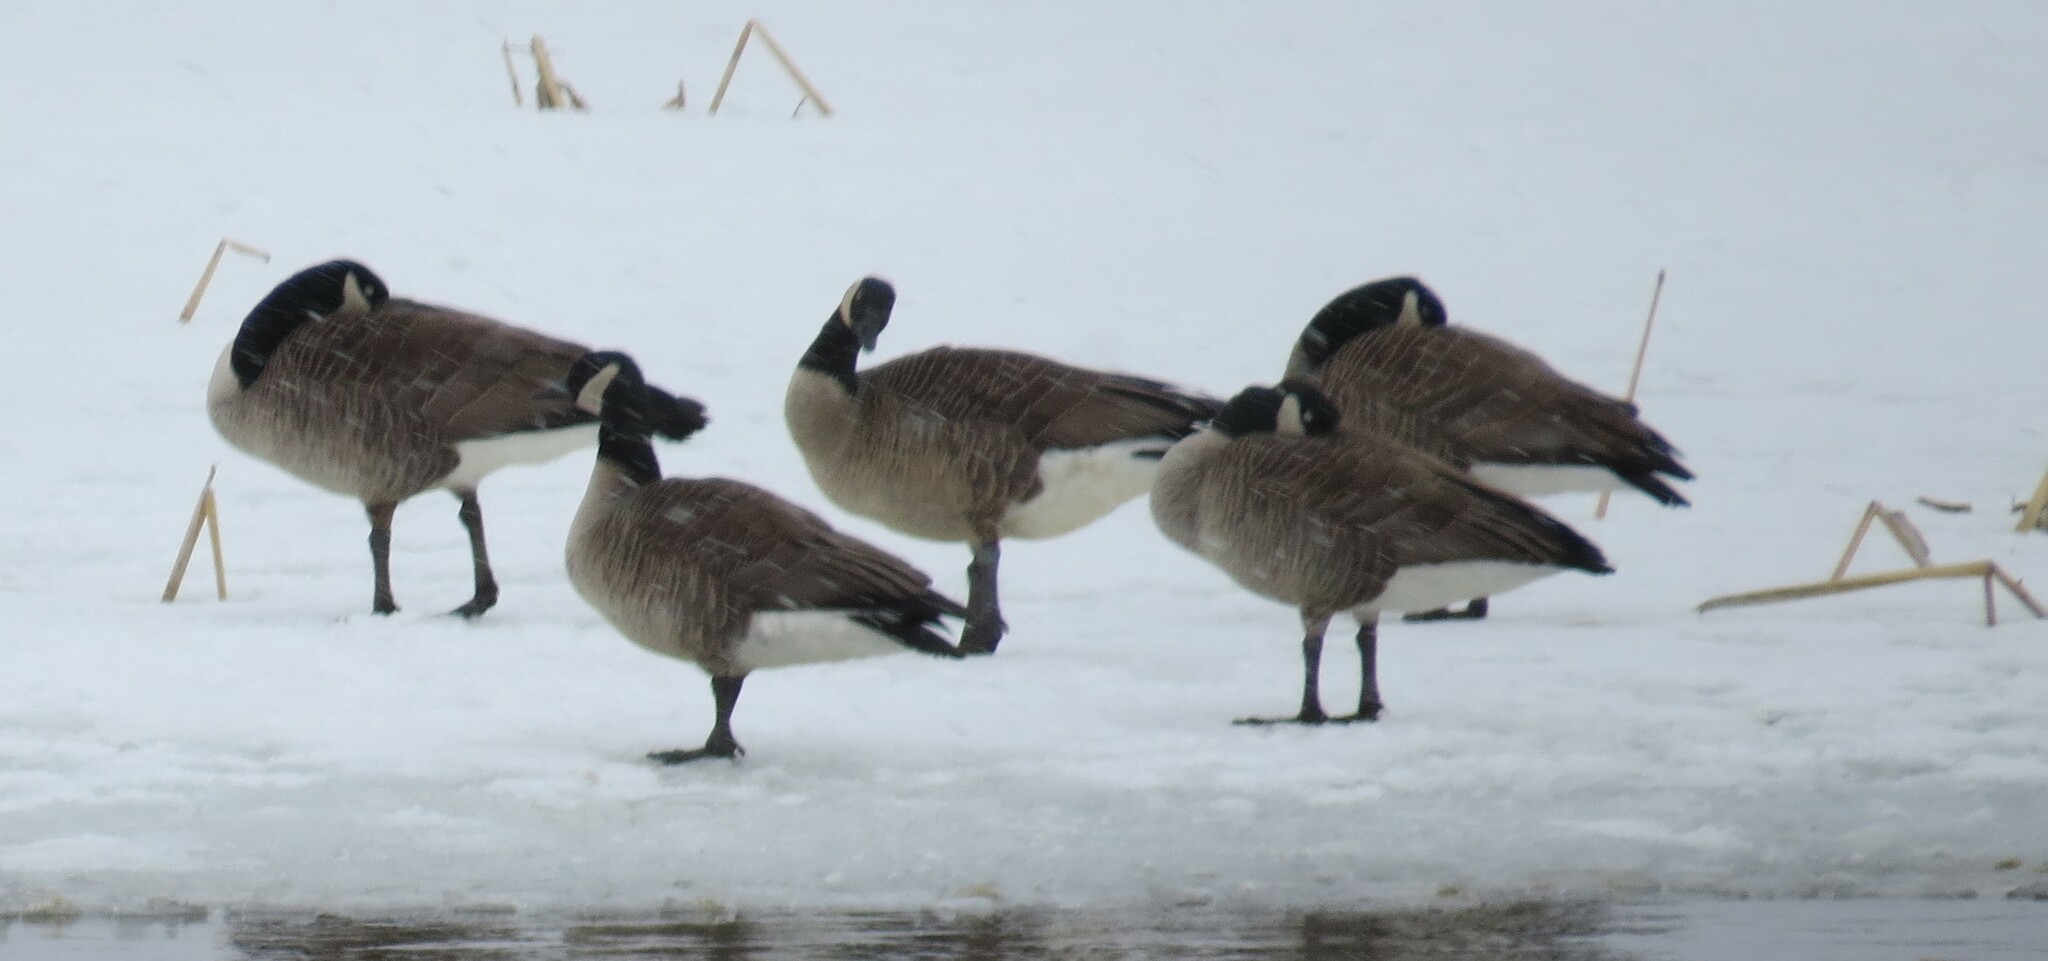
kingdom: Animalia
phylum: Chordata
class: Aves
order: Anseriformes
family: Anatidae
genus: Branta
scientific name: Branta canadensis
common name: Canada goose
